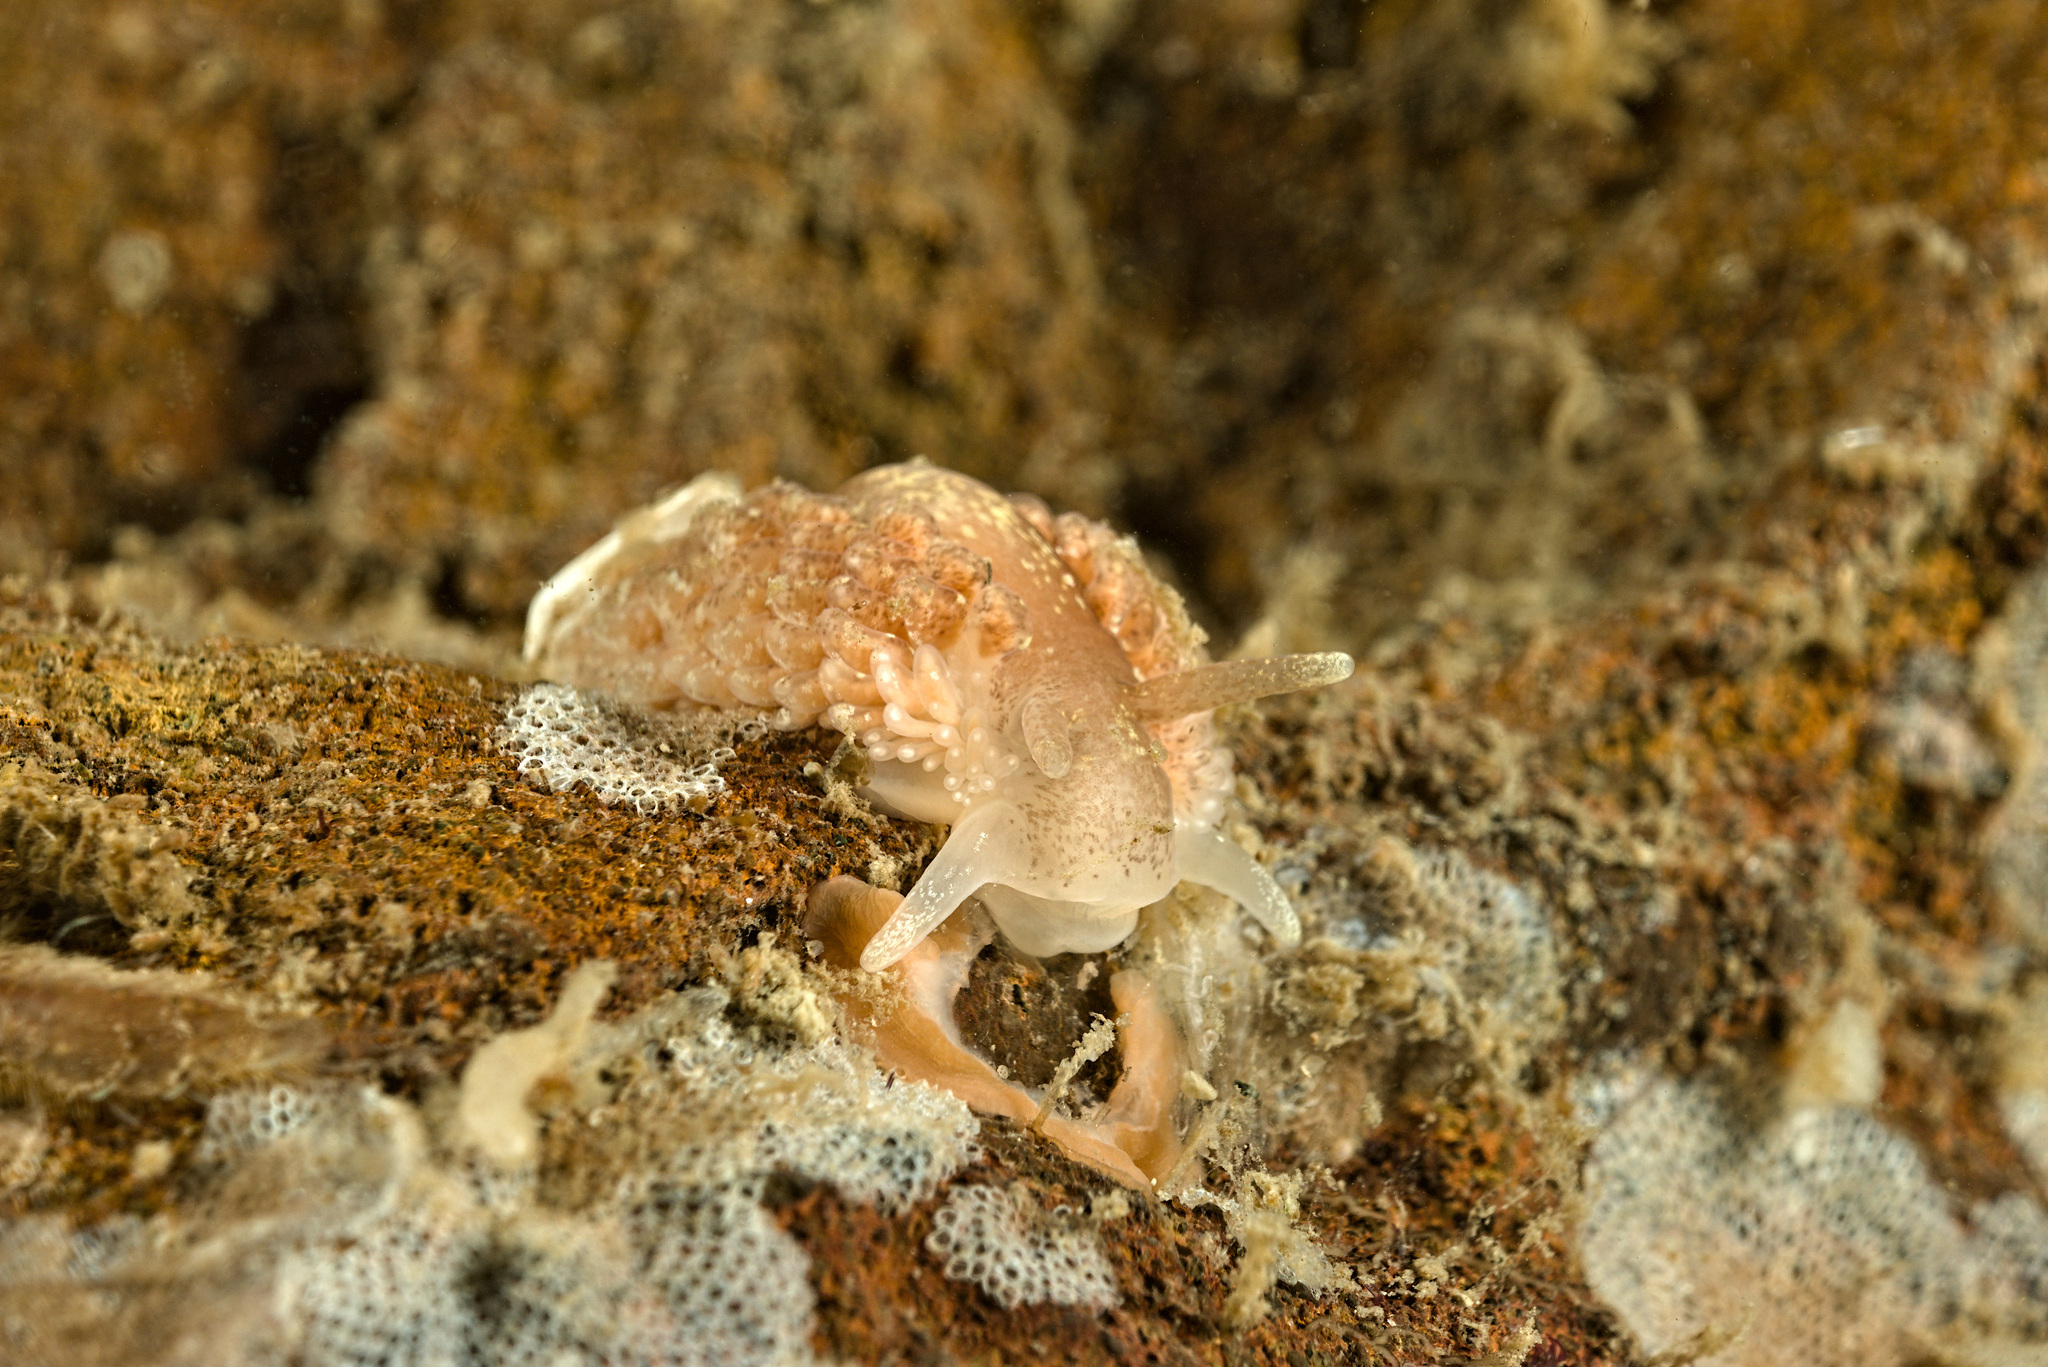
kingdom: Animalia
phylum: Mollusca
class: Gastropoda
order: Nudibranchia
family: Aeolidiidae
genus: Aeolidia
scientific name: Aeolidia papillosa
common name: Common grey sea slug
